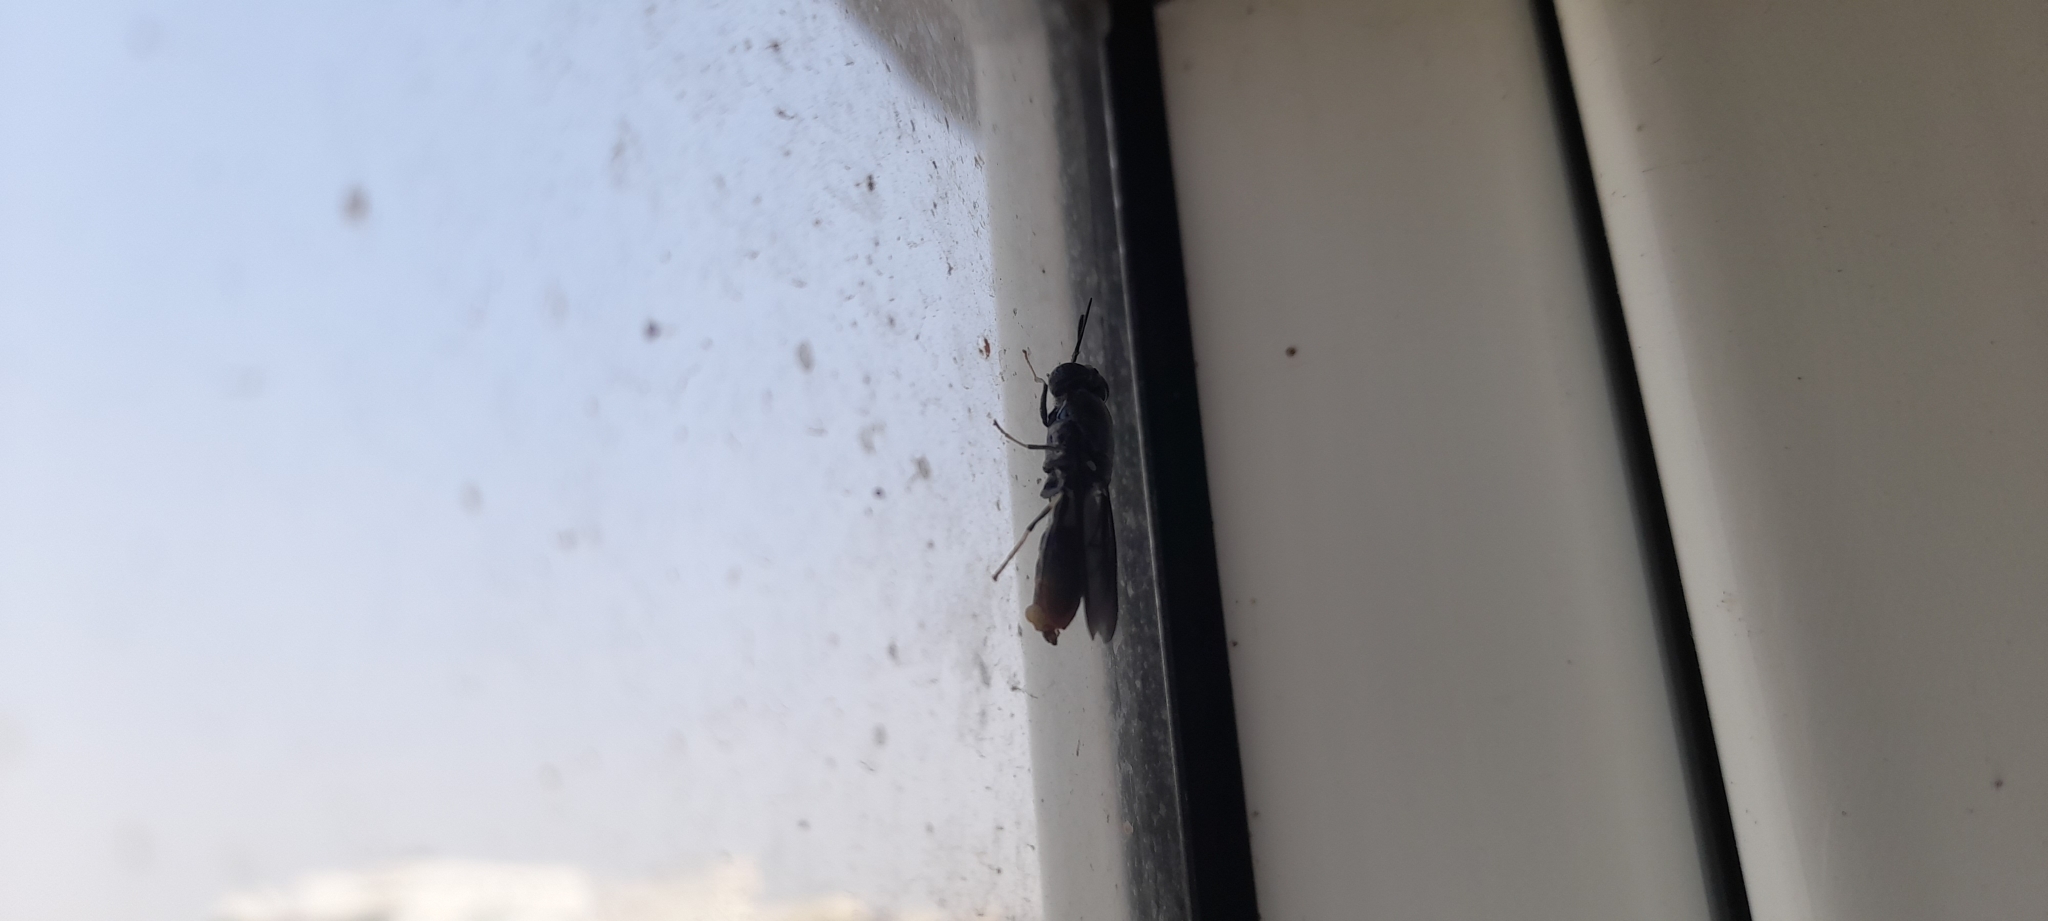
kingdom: Animalia
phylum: Arthropoda
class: Insecta
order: Diptera
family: Stratiomyidae
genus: Hermetia
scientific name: Hermetia illucens
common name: Black soldier fly
